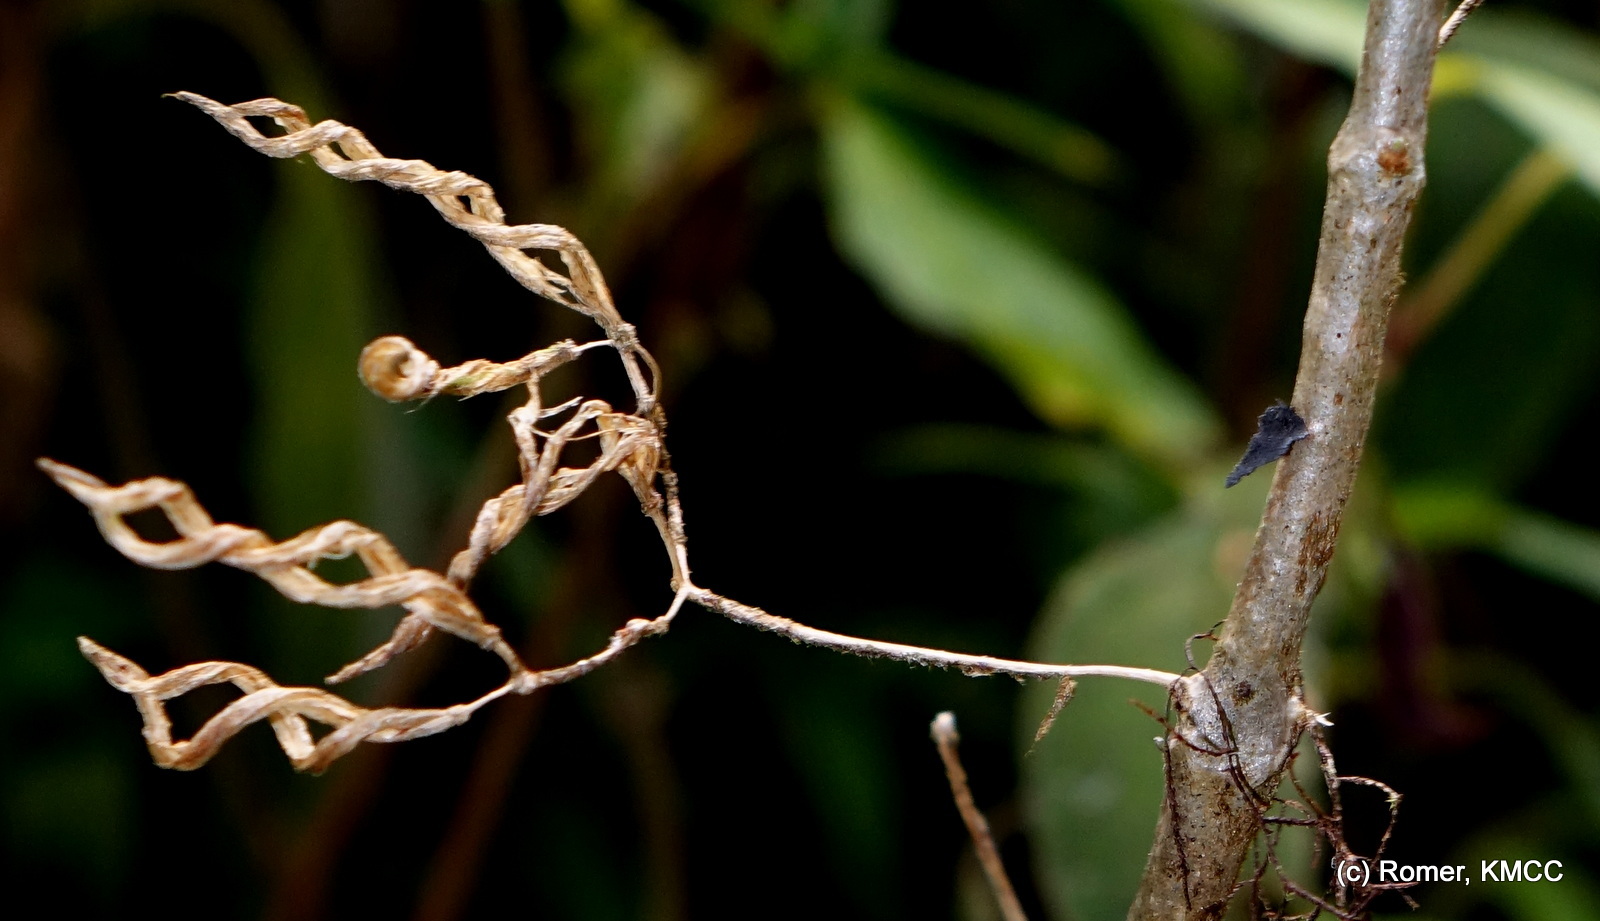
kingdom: Plantae
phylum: Tracheophyta
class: Magnoliopsida
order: Lamiales
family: Gesneriaceae
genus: Streptocarpus
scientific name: Streptocarpus hilsenbergii
